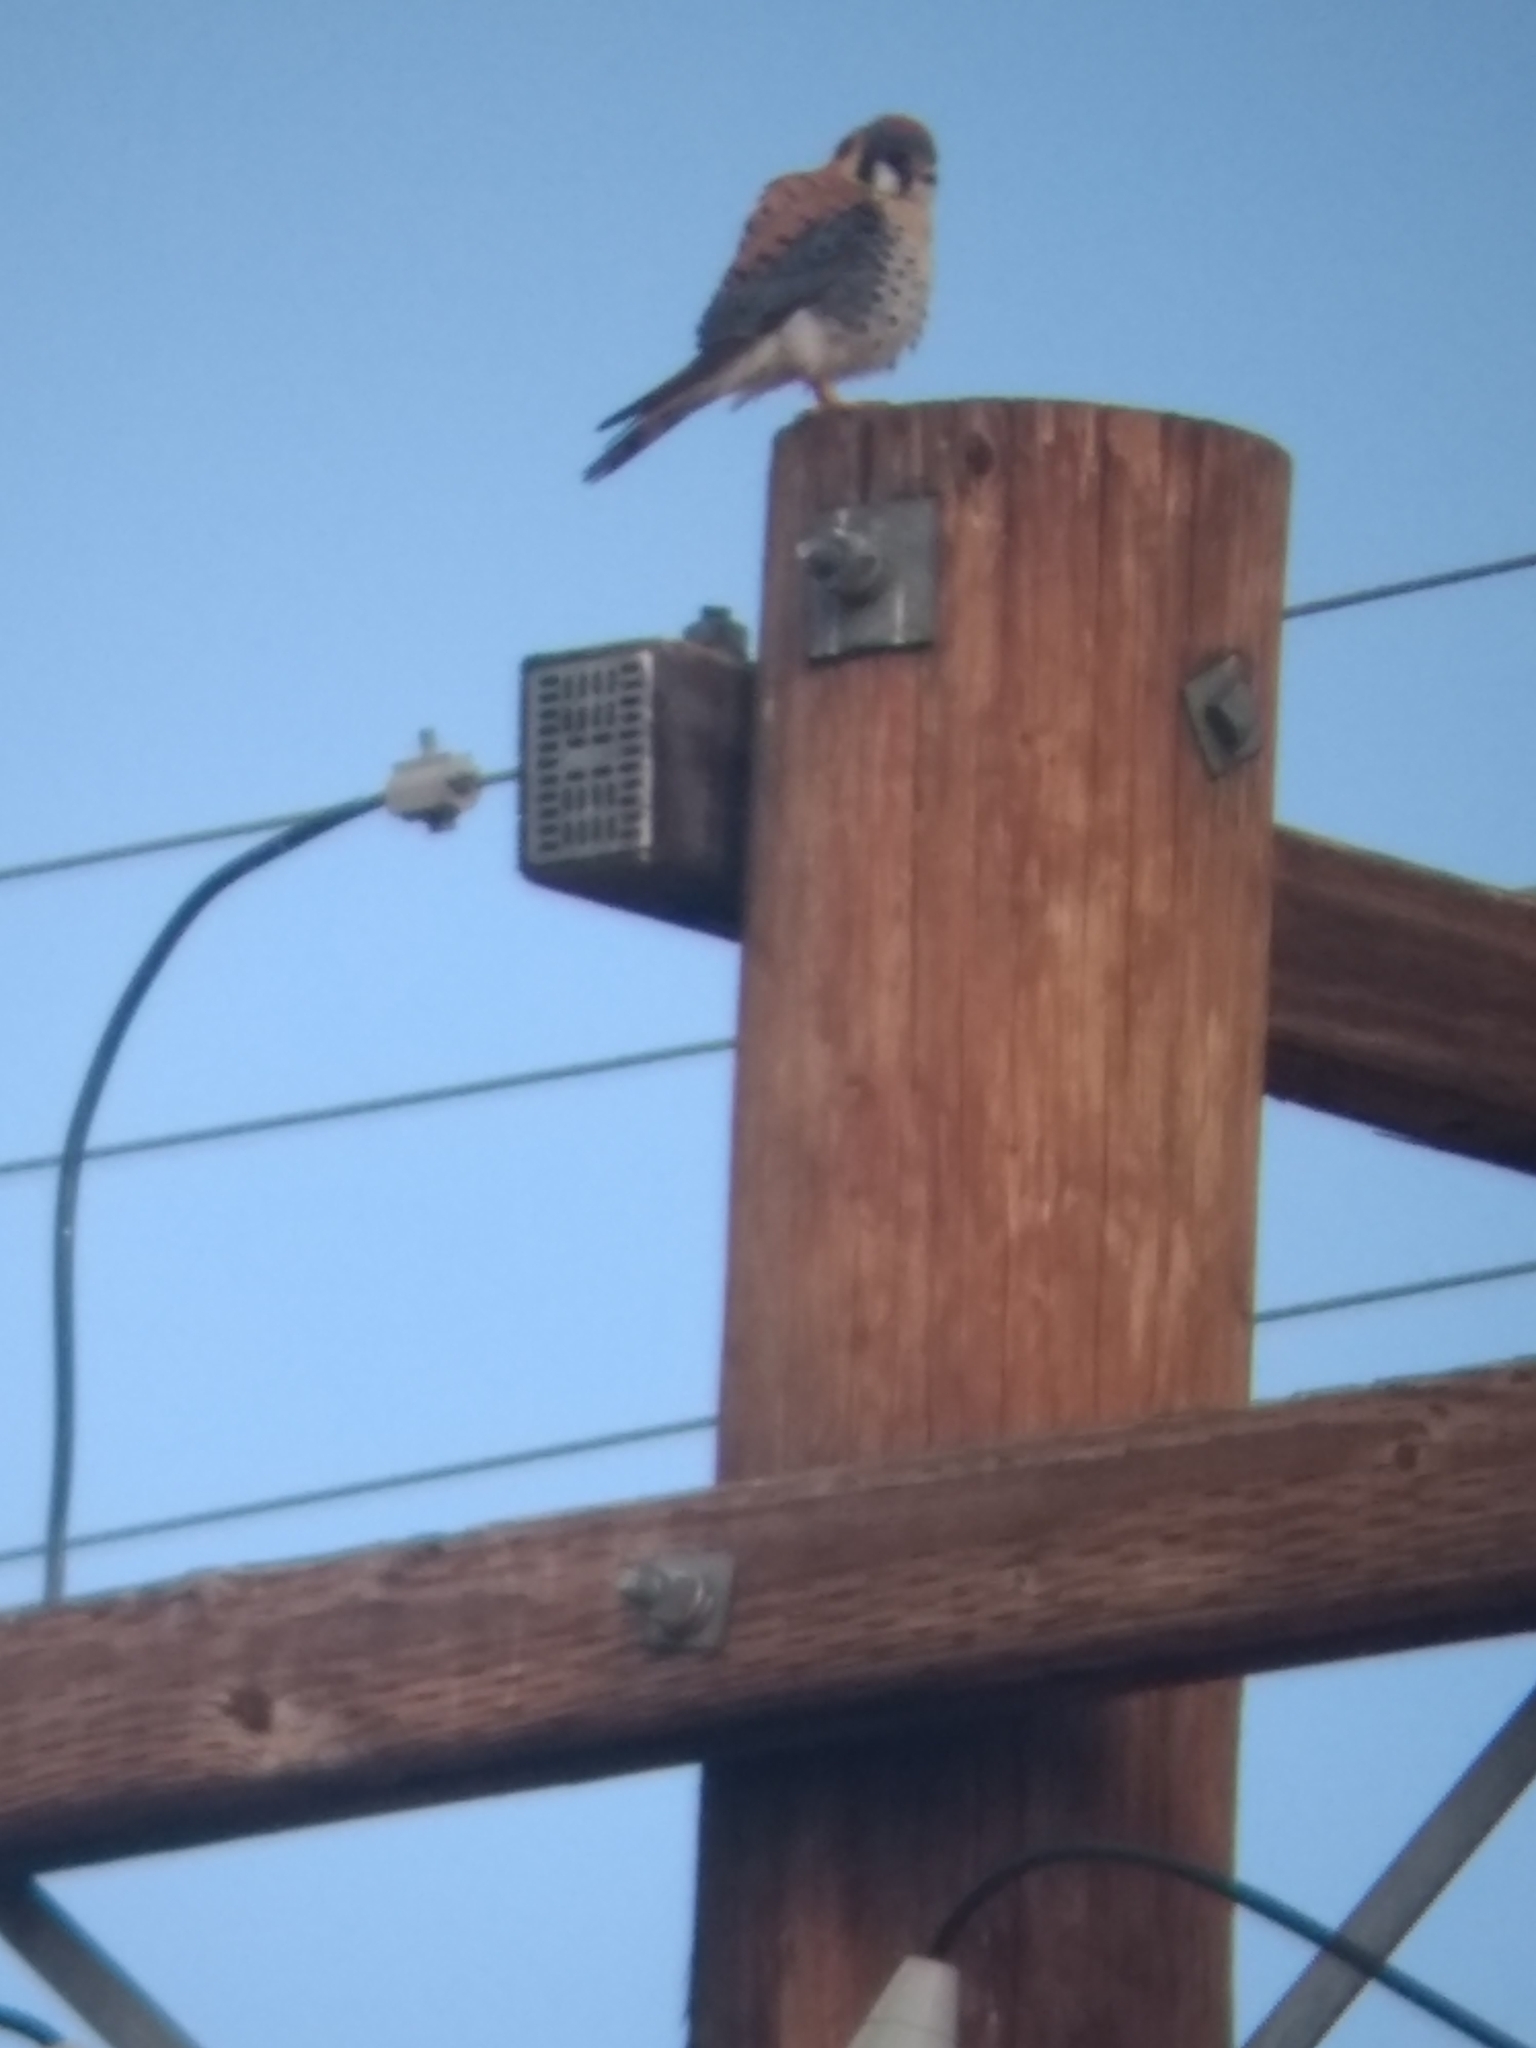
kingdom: Animalia
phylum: Chordata
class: Aves
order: Falconiformes
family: Falconidae
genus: Falco
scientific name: Falco sparverius
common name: American kestrel
